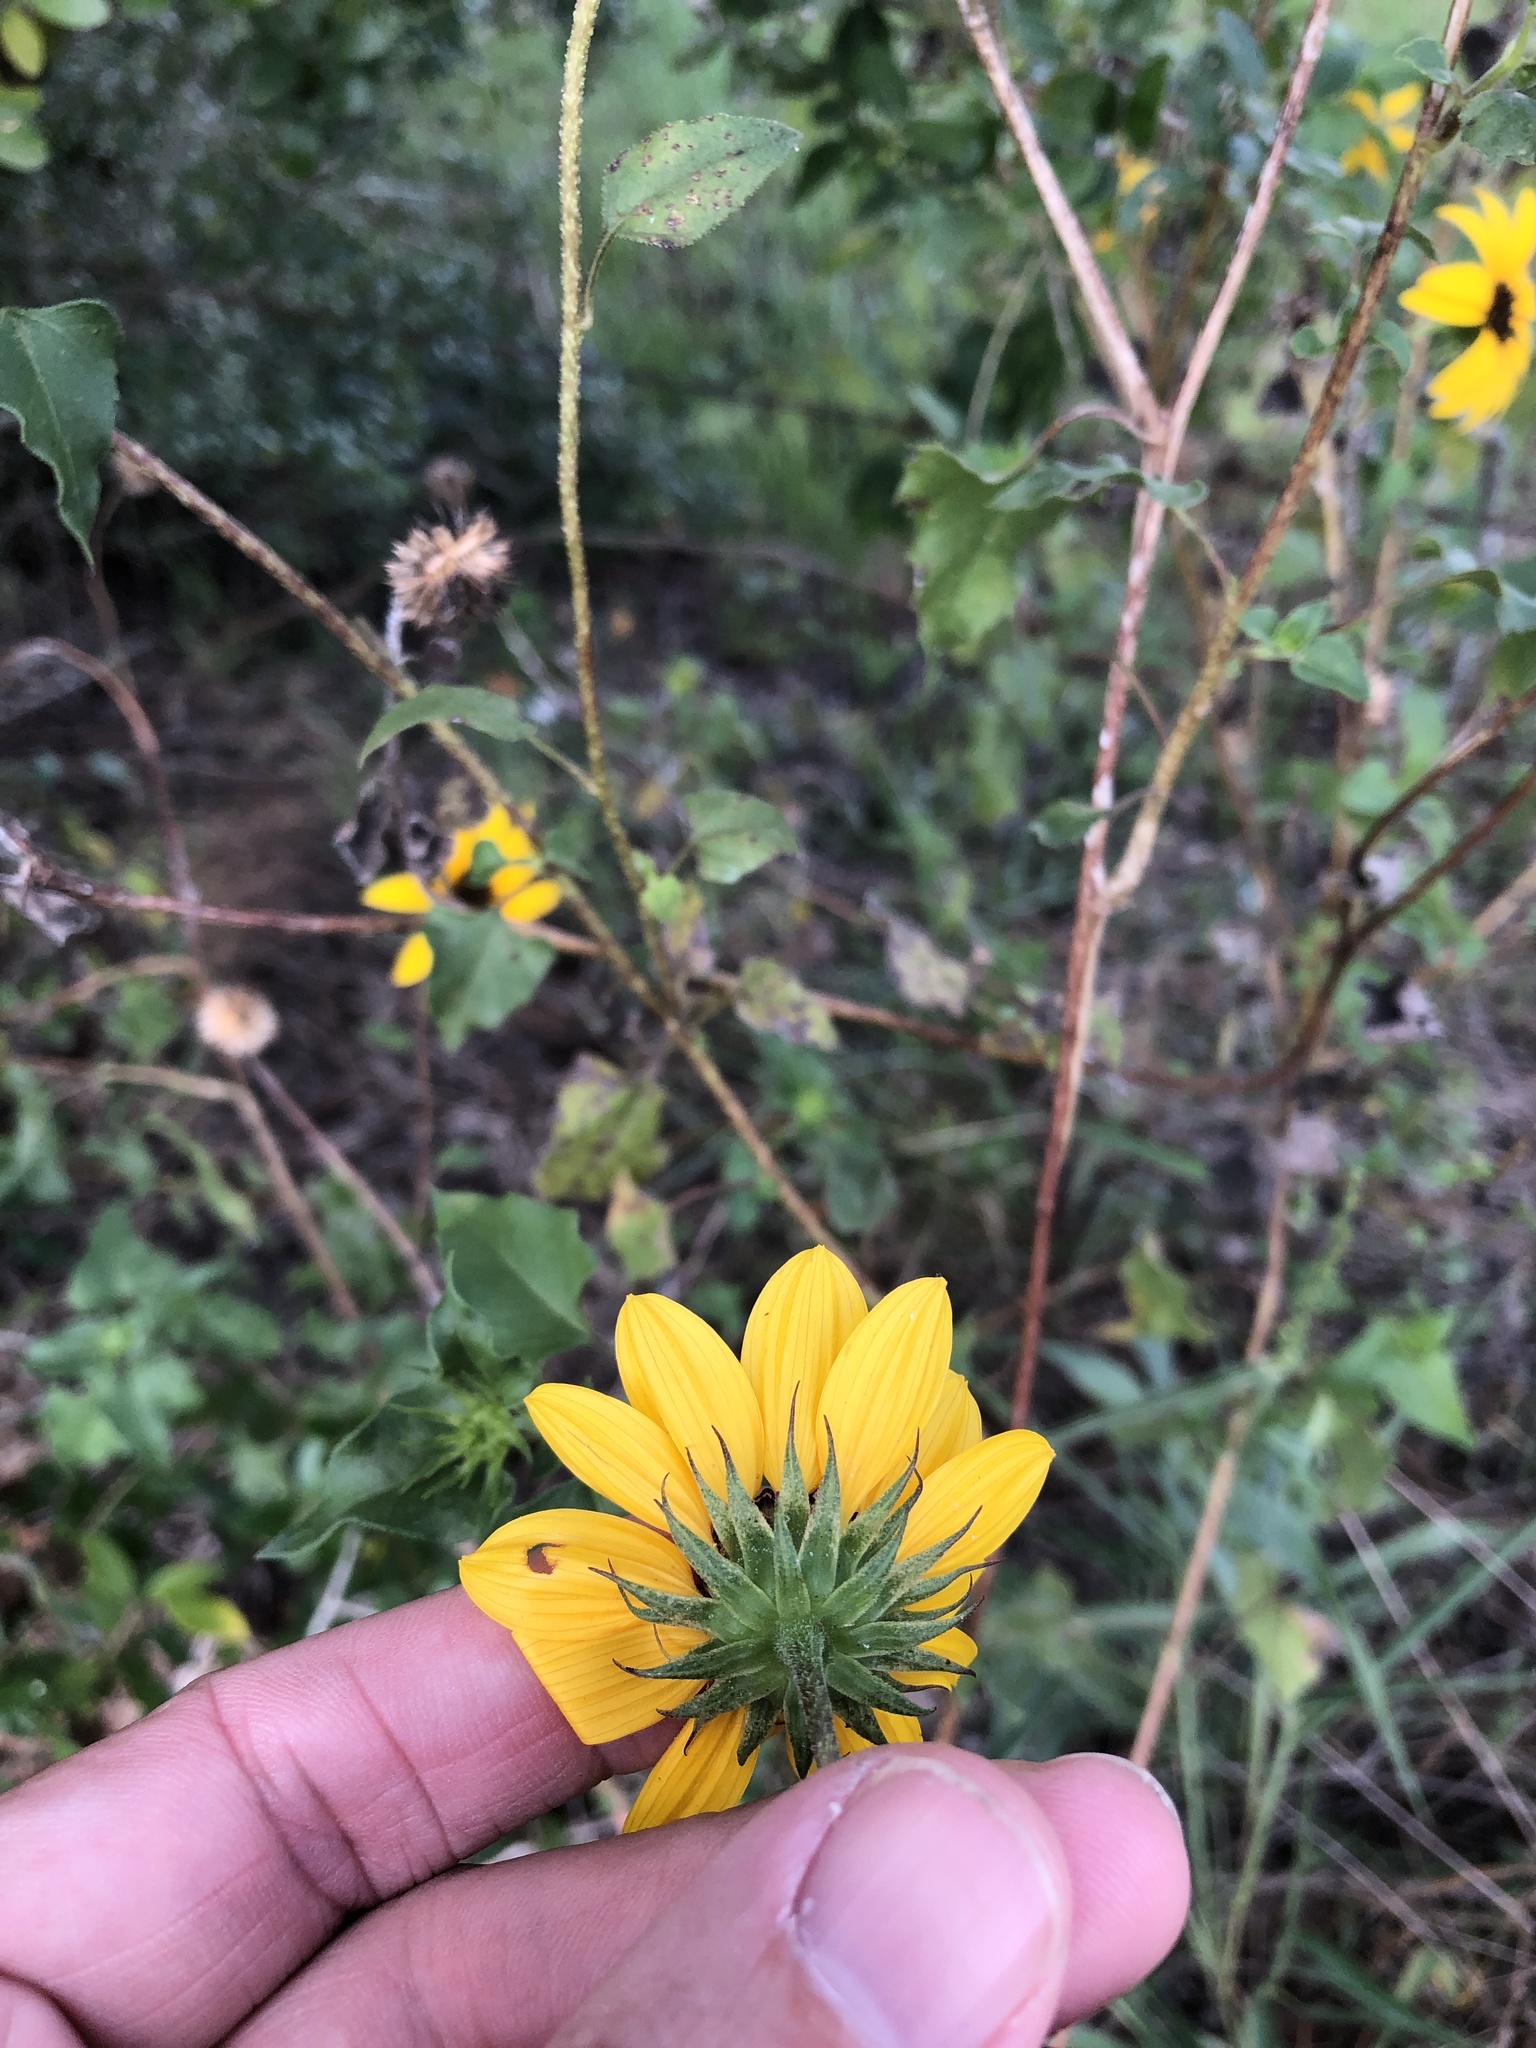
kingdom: Plantae
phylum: Tracheophyta
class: Magnoliopsida
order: Asterales
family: Asteraceae
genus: Helianthus
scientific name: Helianthus debilis
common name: Weak sunflower
